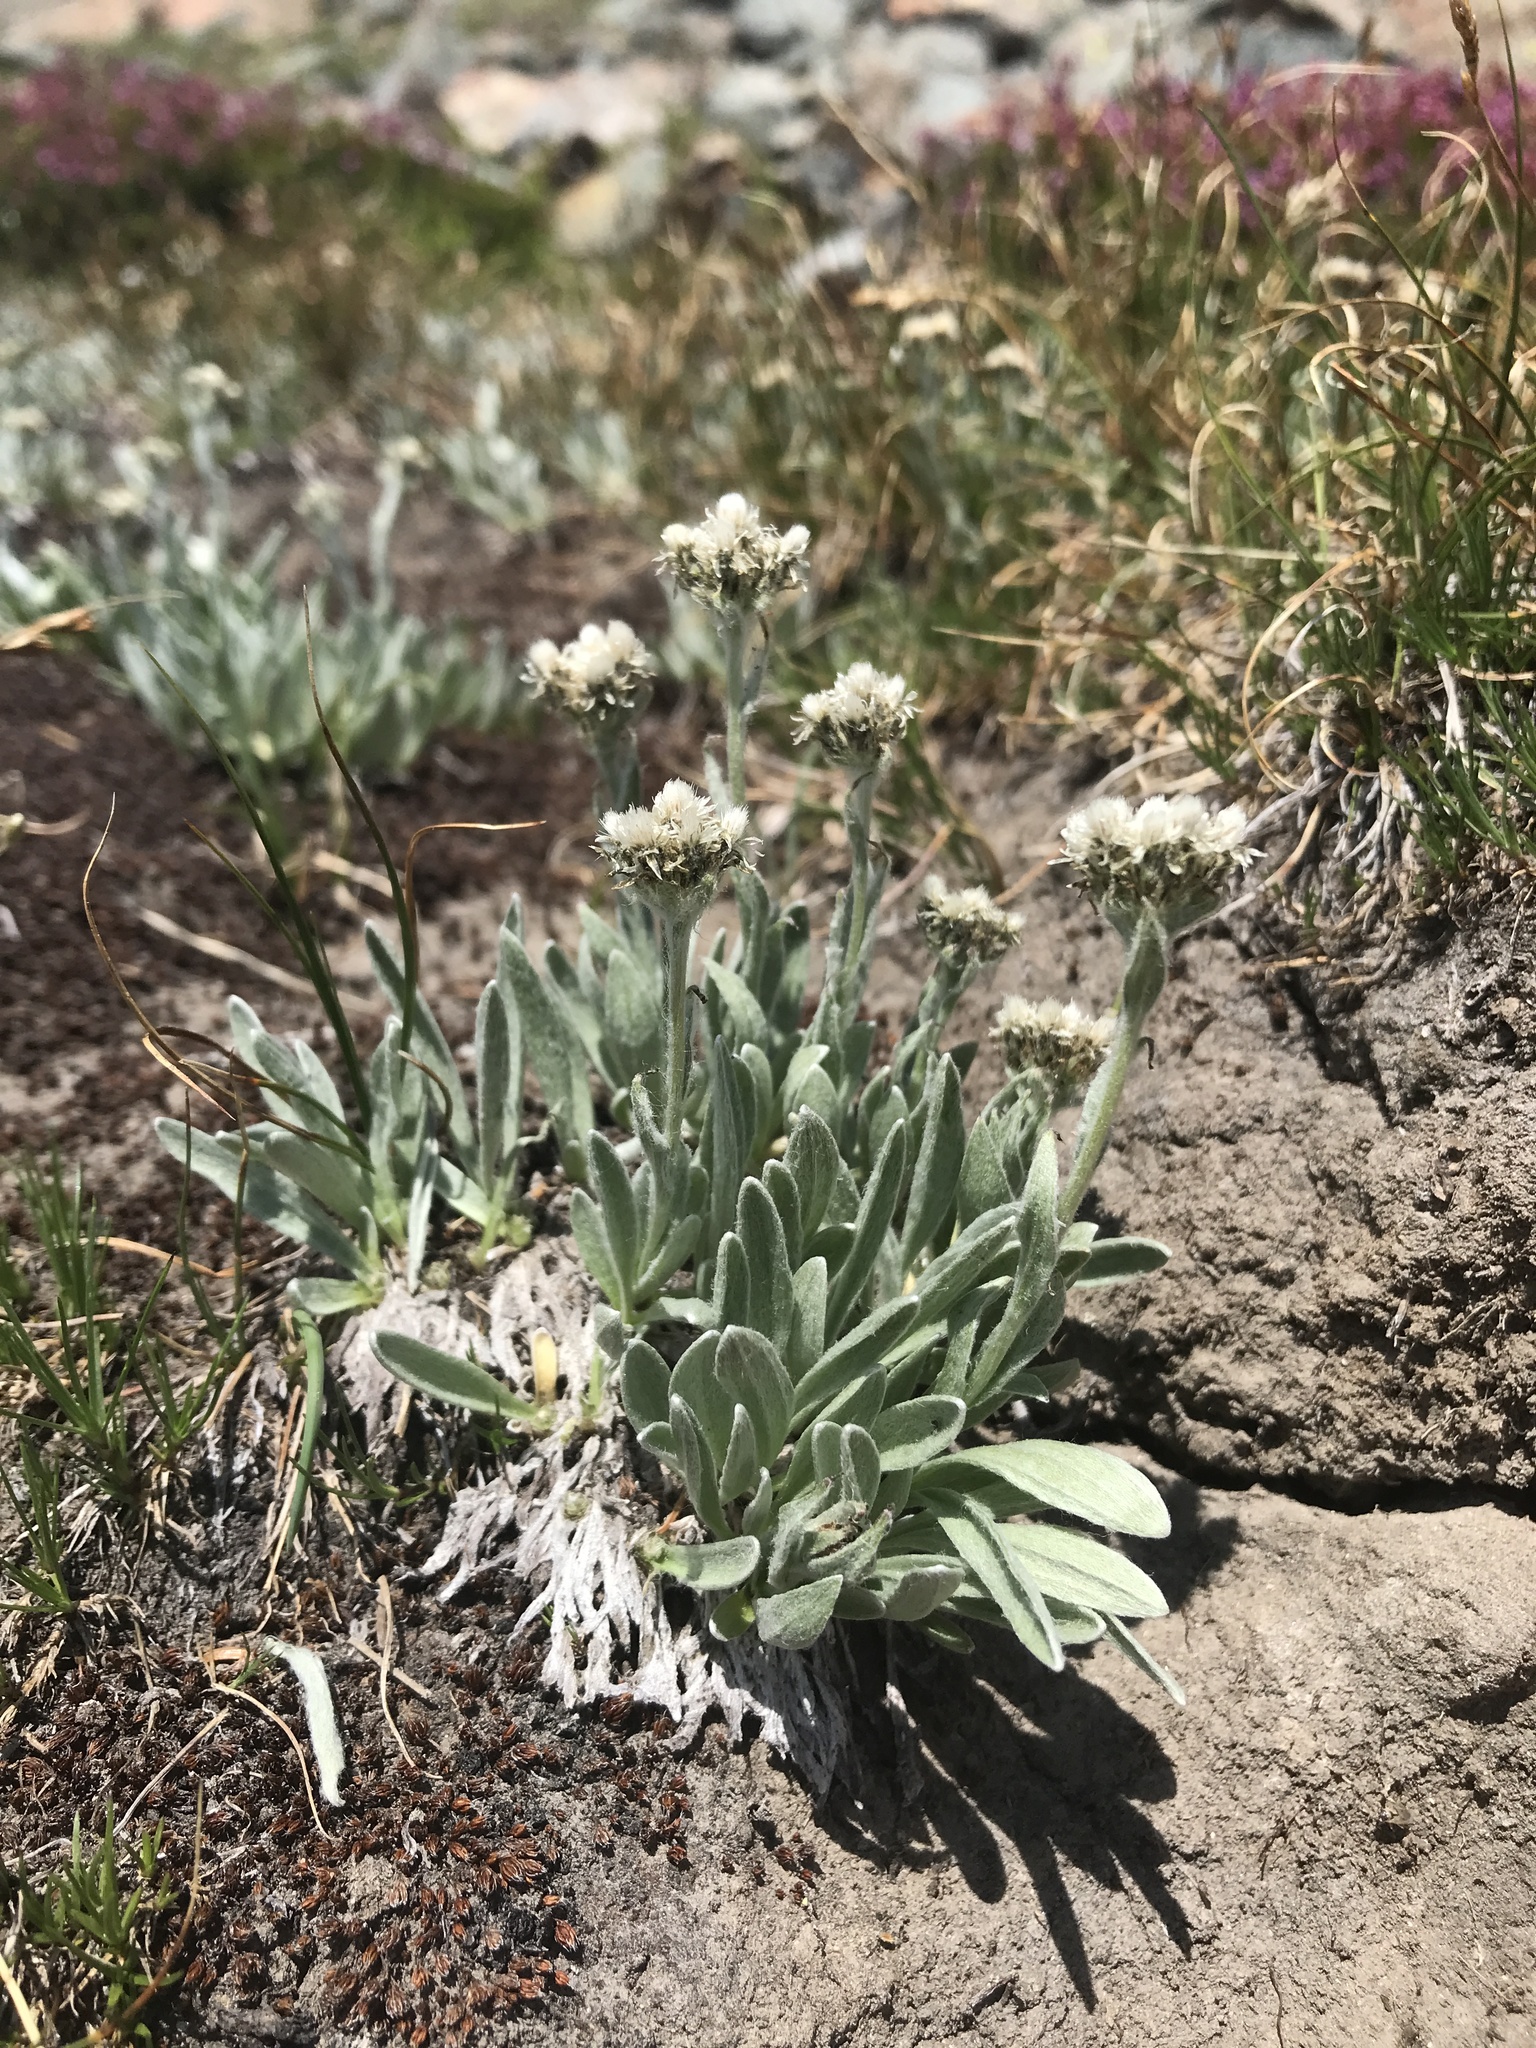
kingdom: Plantae
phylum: Tracheophyta
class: Magnoliopsida
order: Asterales
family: Asteraceae
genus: Antennaria
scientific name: Antennaria lanata
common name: Woolly pussytoes
